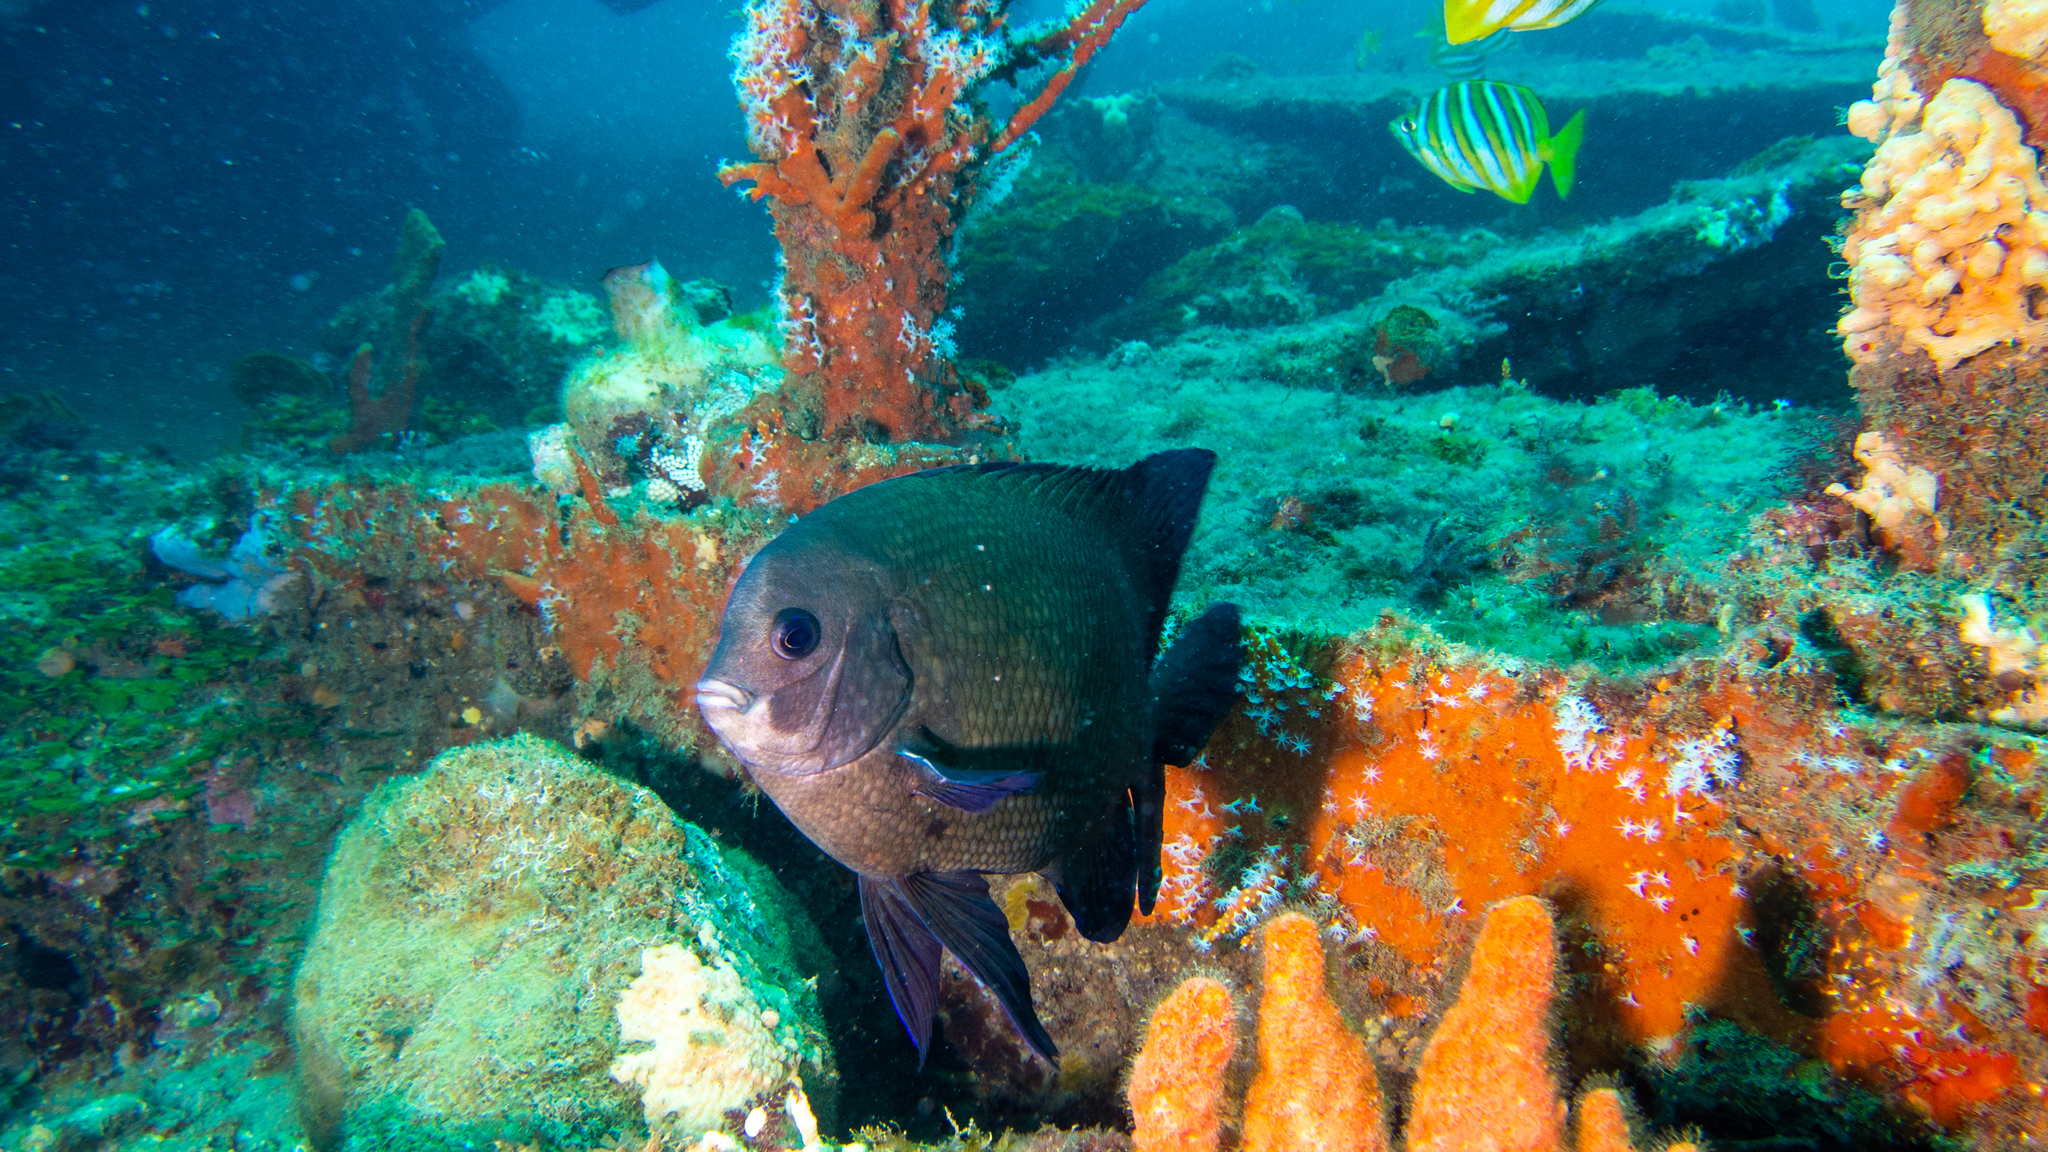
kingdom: Animalia
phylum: Chordata
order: Perciformes
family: Pomacentridae
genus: Parma
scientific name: Parma occidentalis
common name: Western scalyfin
